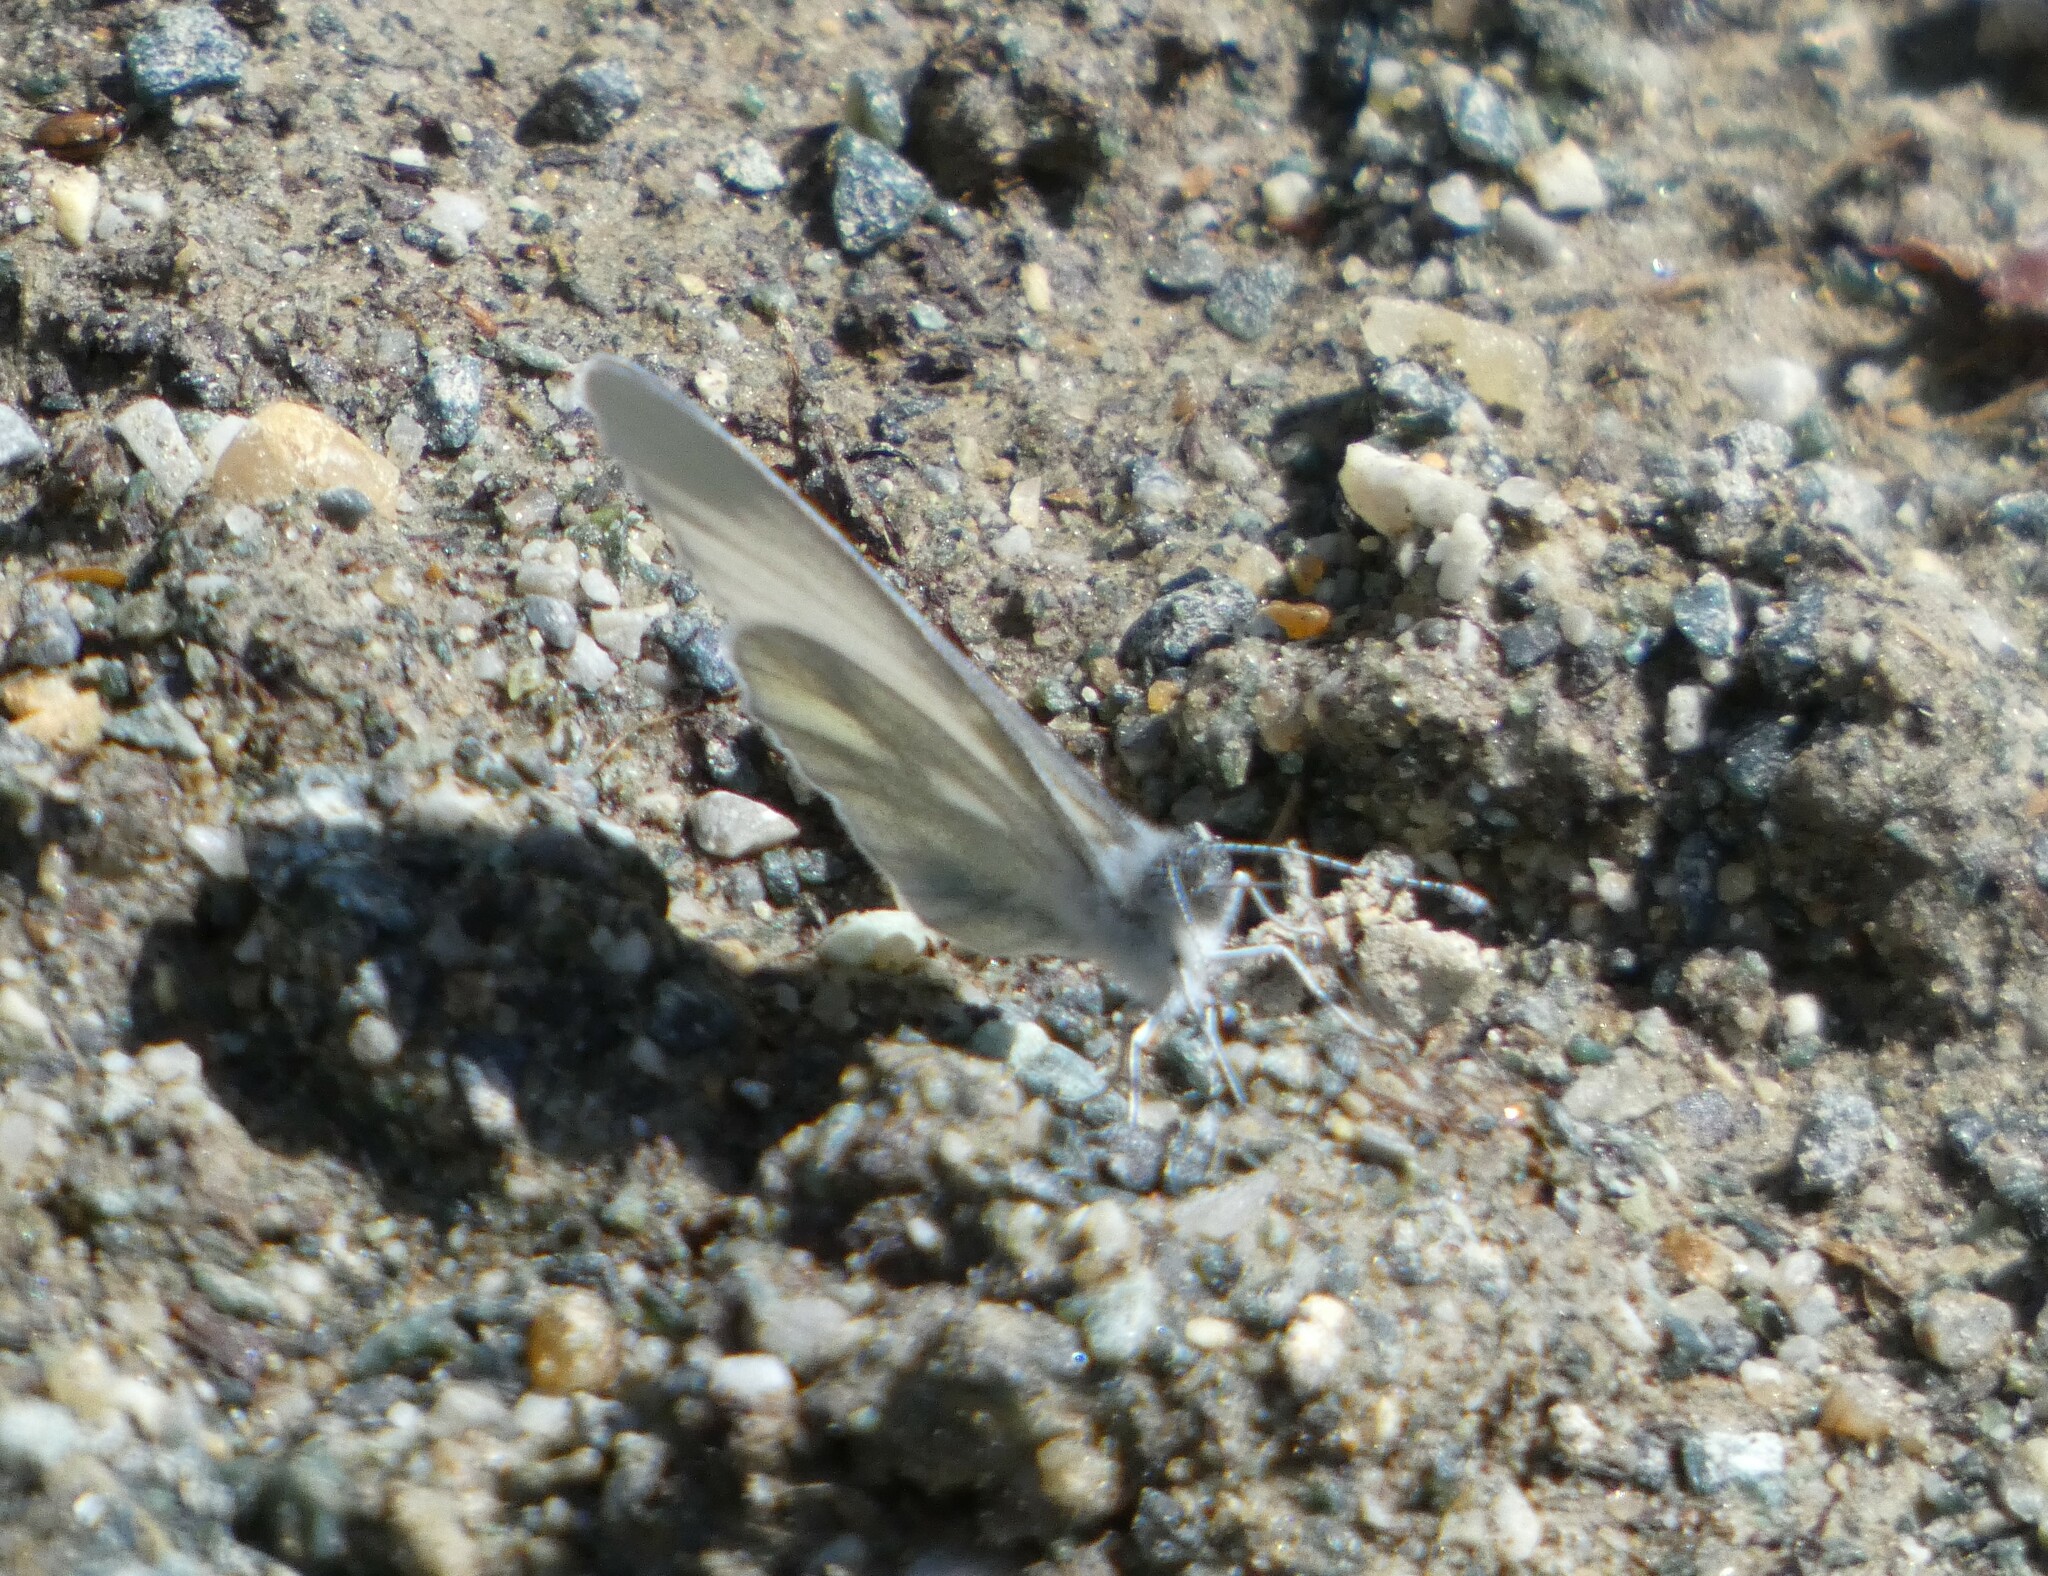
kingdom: Animalia
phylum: Arthropoda
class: Insecta
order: Lepidoptera
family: Pieridae
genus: Leptidea
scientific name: Leptidea
